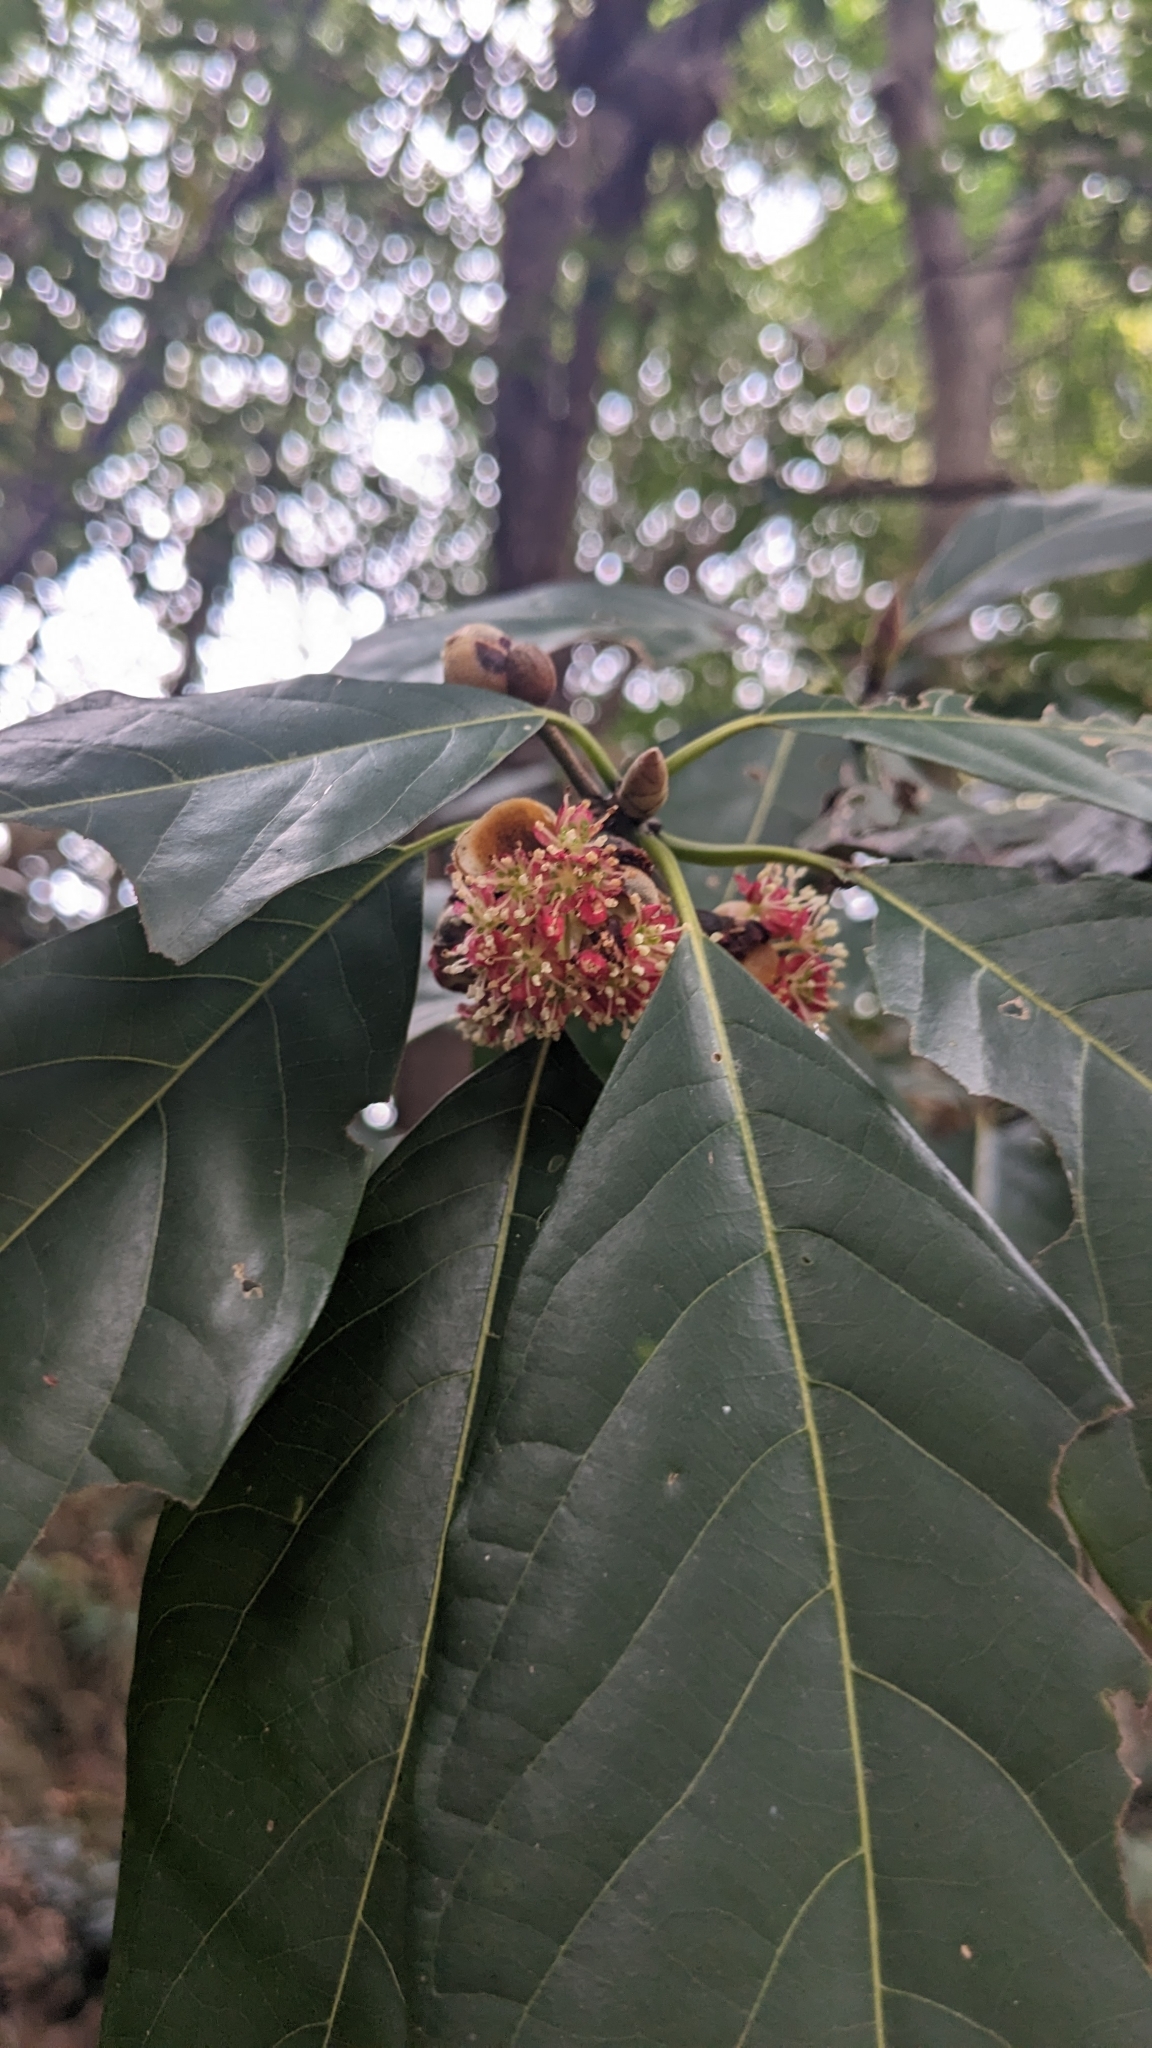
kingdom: Plantae
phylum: Tracheophyta
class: Magnoliopsida
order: Laurales
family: Lauraceae
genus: Lindera
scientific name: Lindera megaphylla
